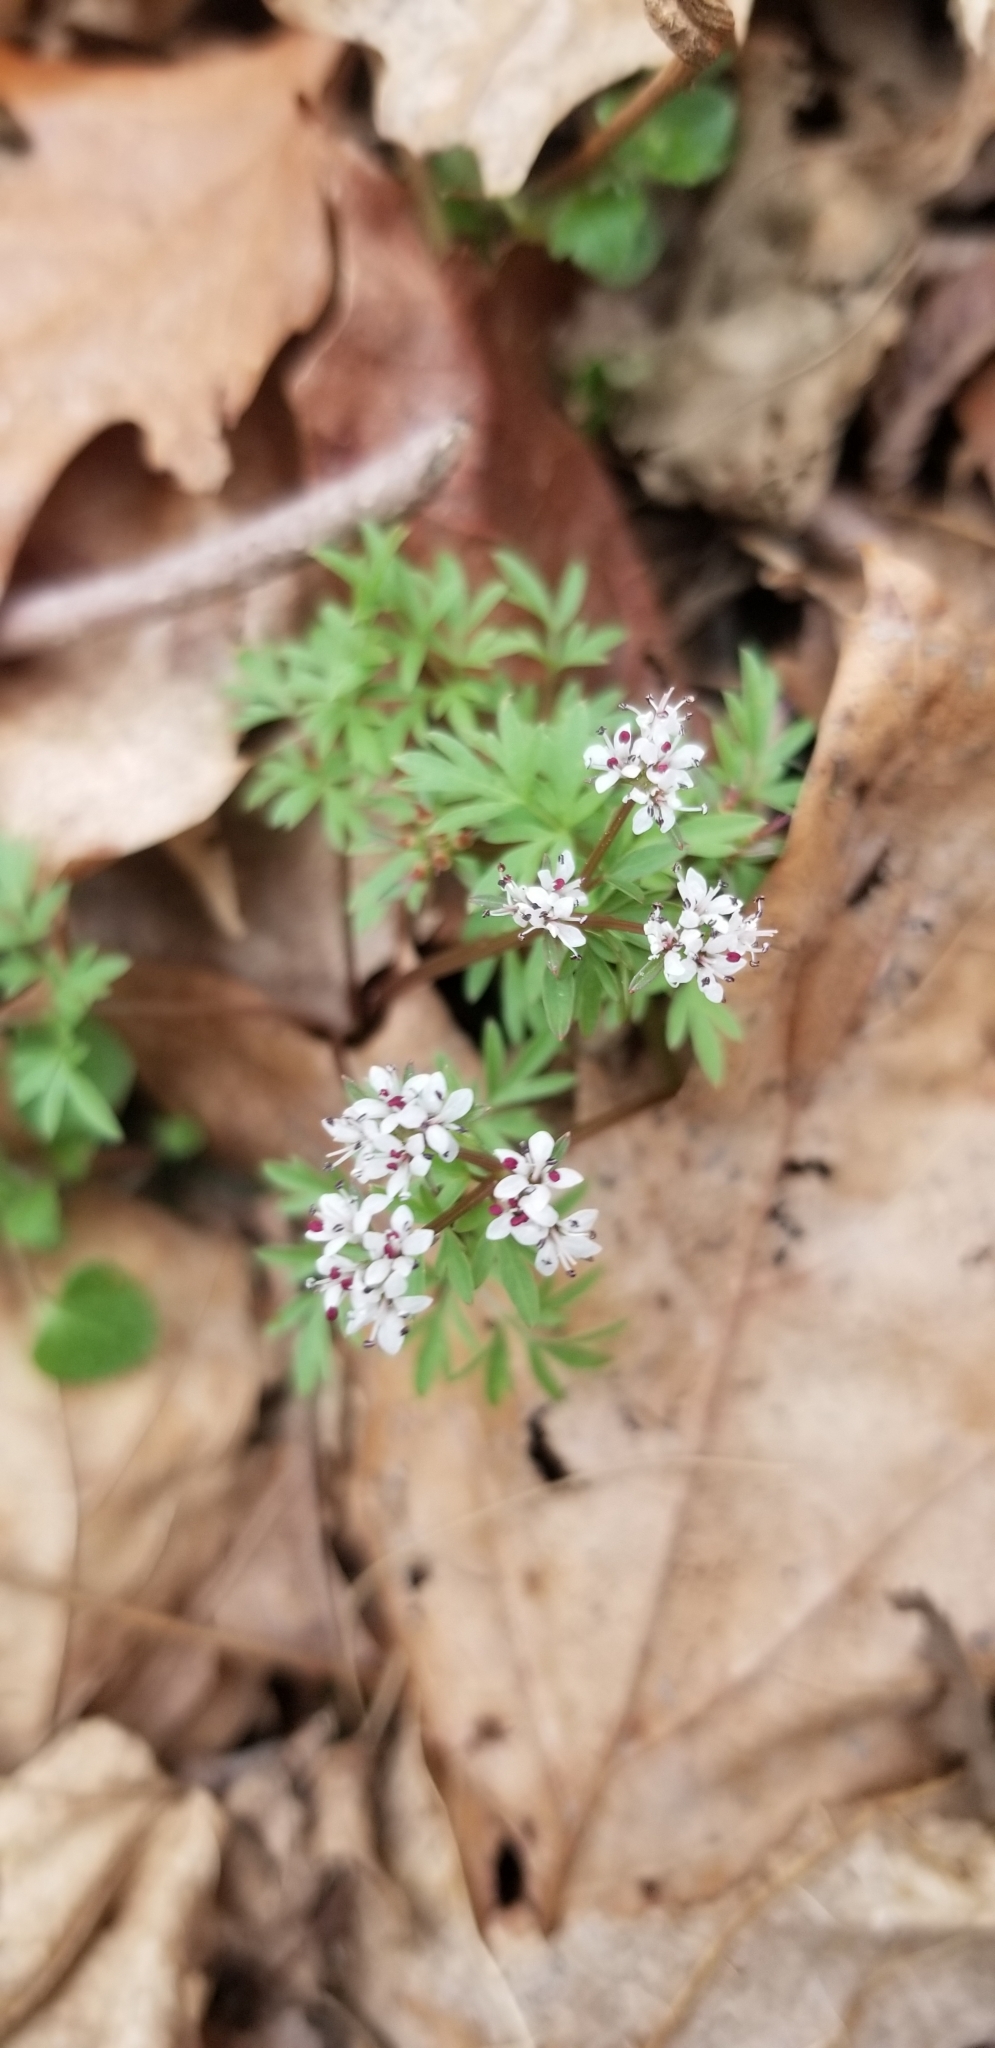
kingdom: Plantae
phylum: Tracheophyta
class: Magnoliopsida
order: Apiales
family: Apiaceae
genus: Erigenia
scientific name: Erigenia bulbosa
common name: Pepper-and-salt
